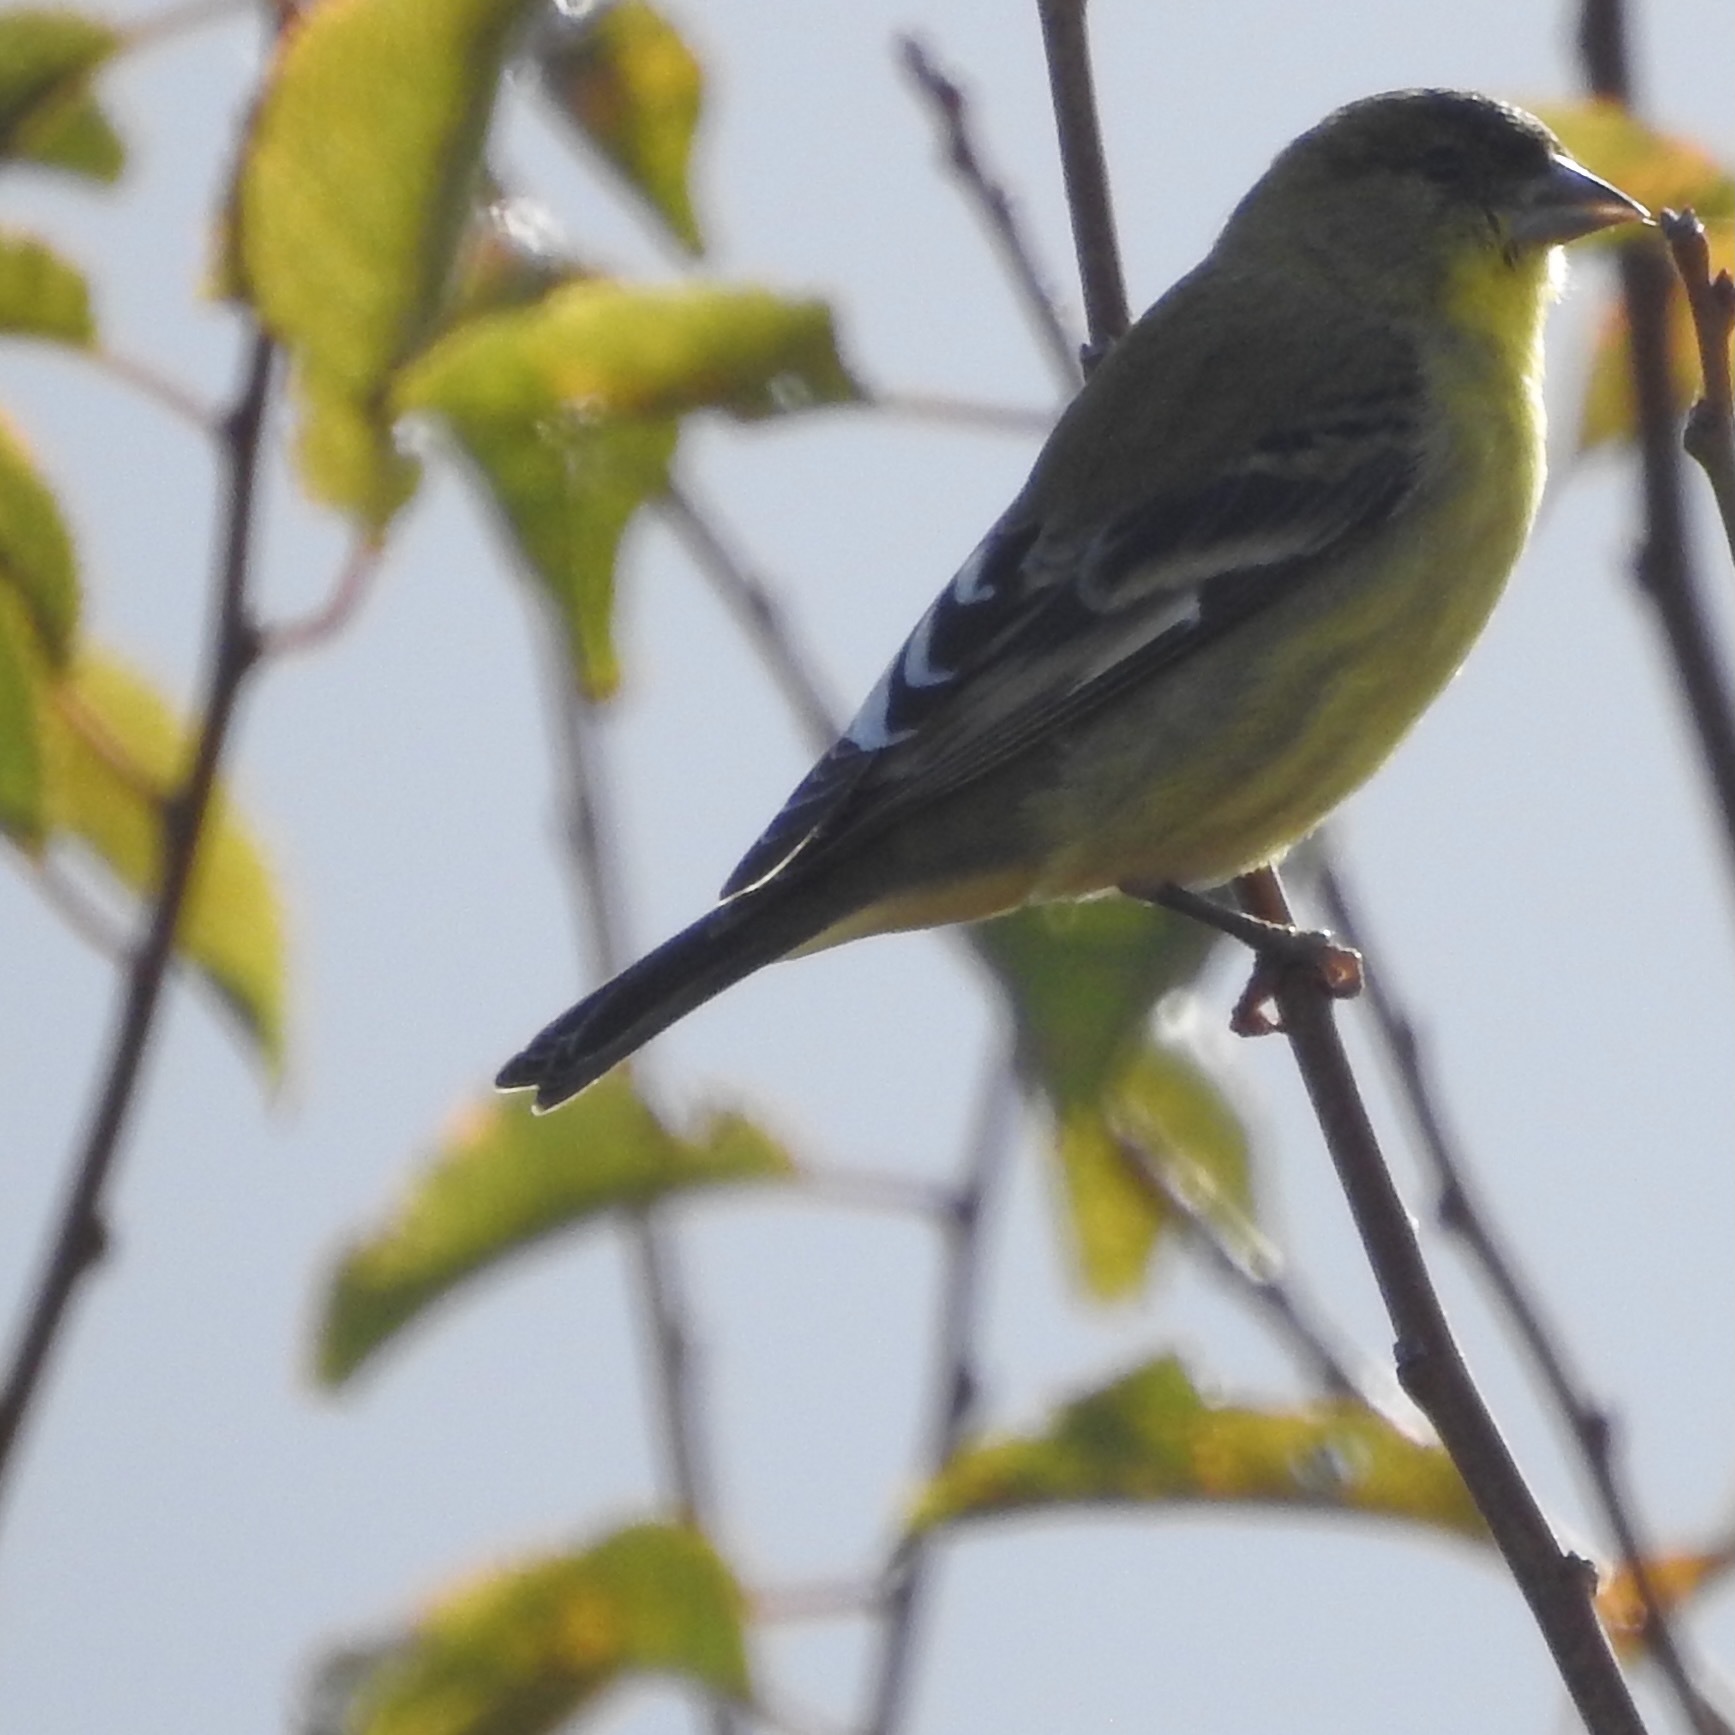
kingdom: Animalia
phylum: Chordata
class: Aves
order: Passeriformes
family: Fringillidae
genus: Spinus
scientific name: Spinus psaltria
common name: Lesser goldfinch
